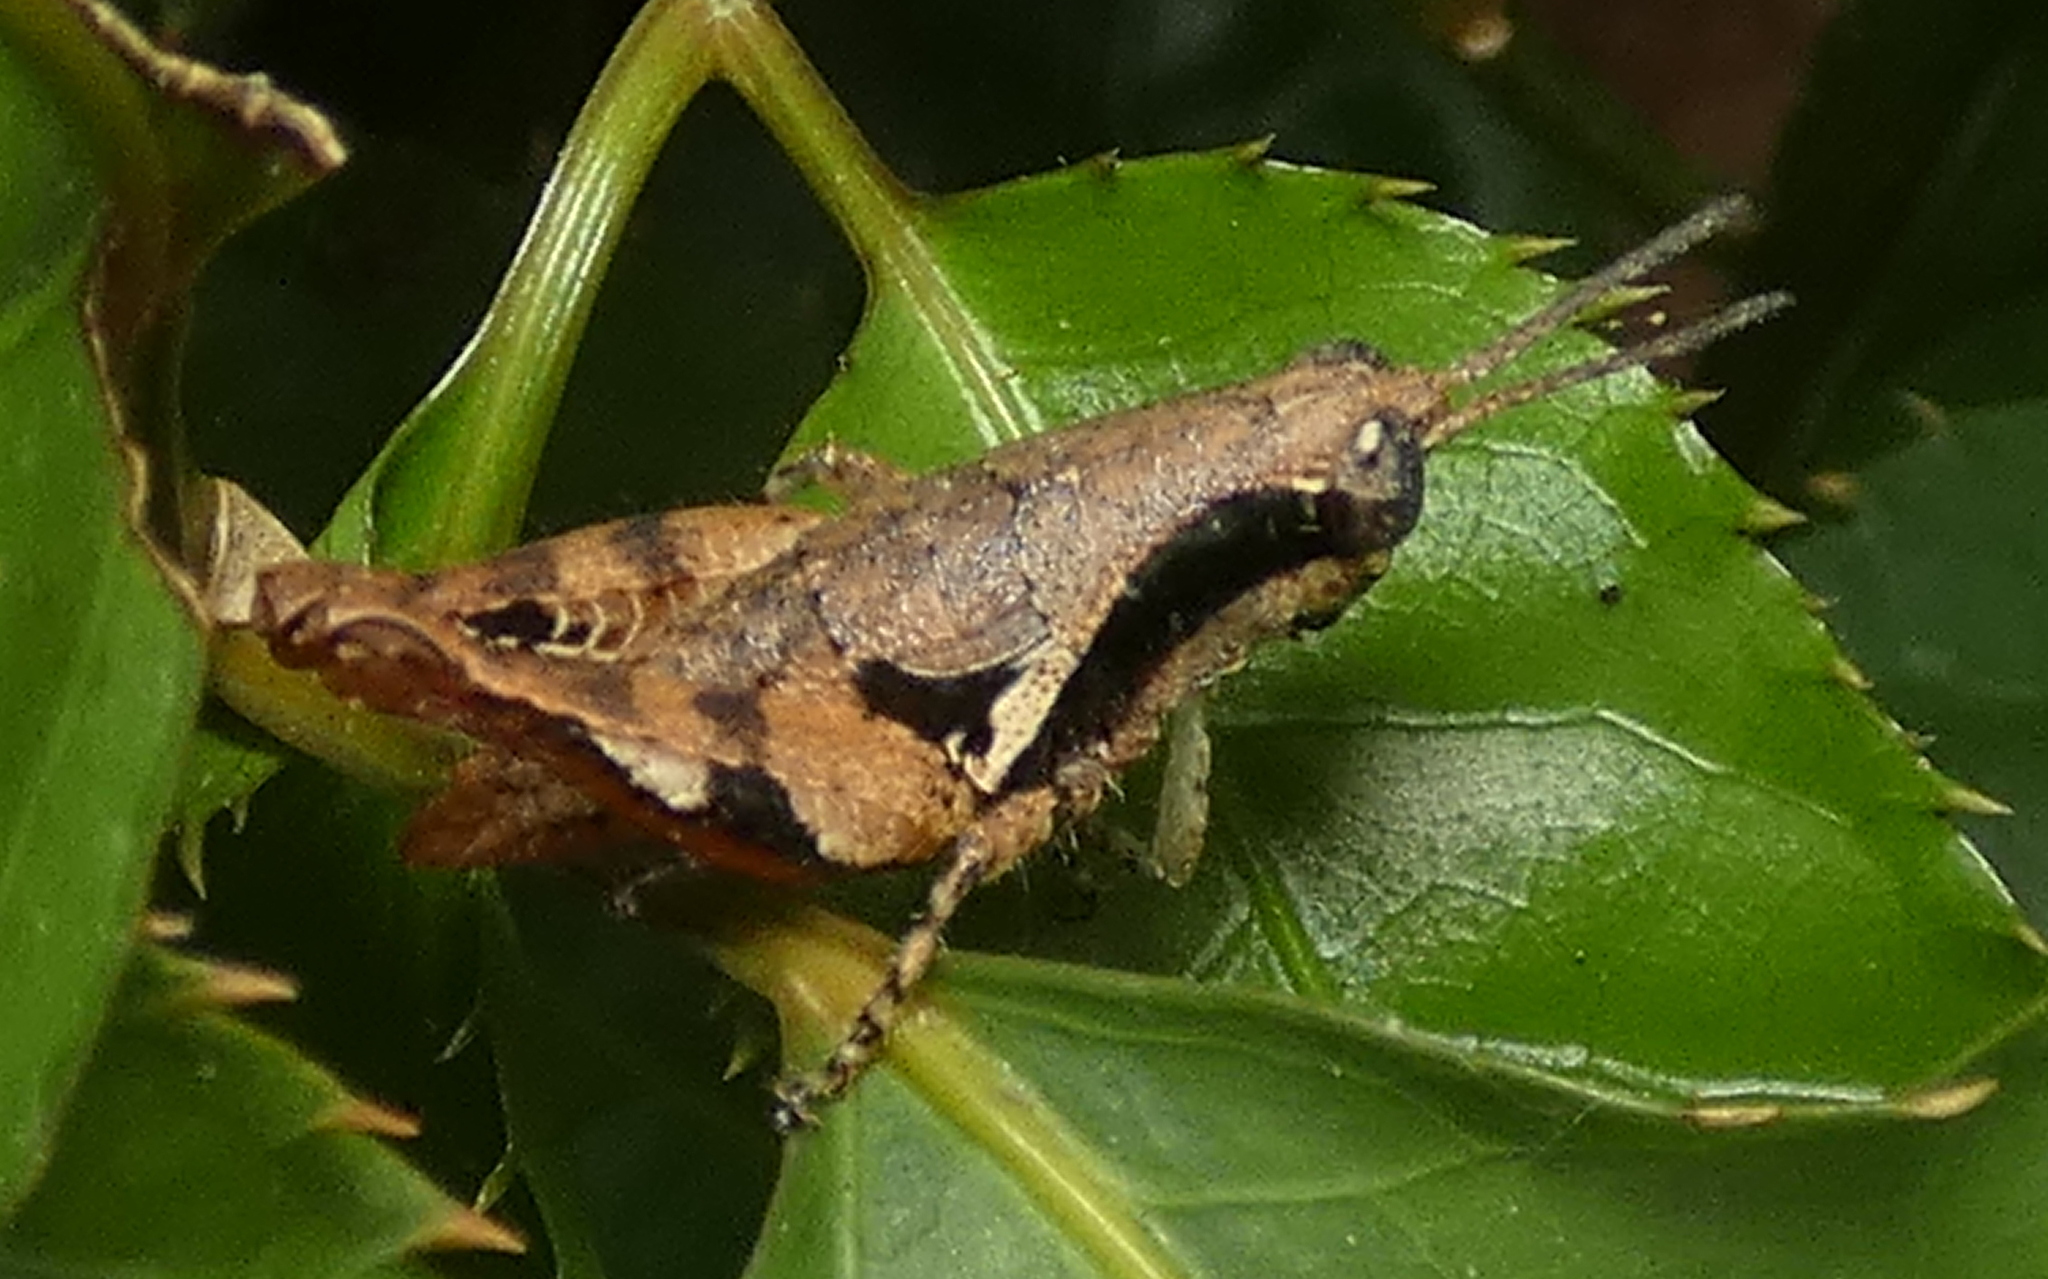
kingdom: Animalia
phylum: Arthropoda
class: Insecta
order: Orthoptera
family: Acrididae
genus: Eujivarus
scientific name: Eujivarus meridionalis
